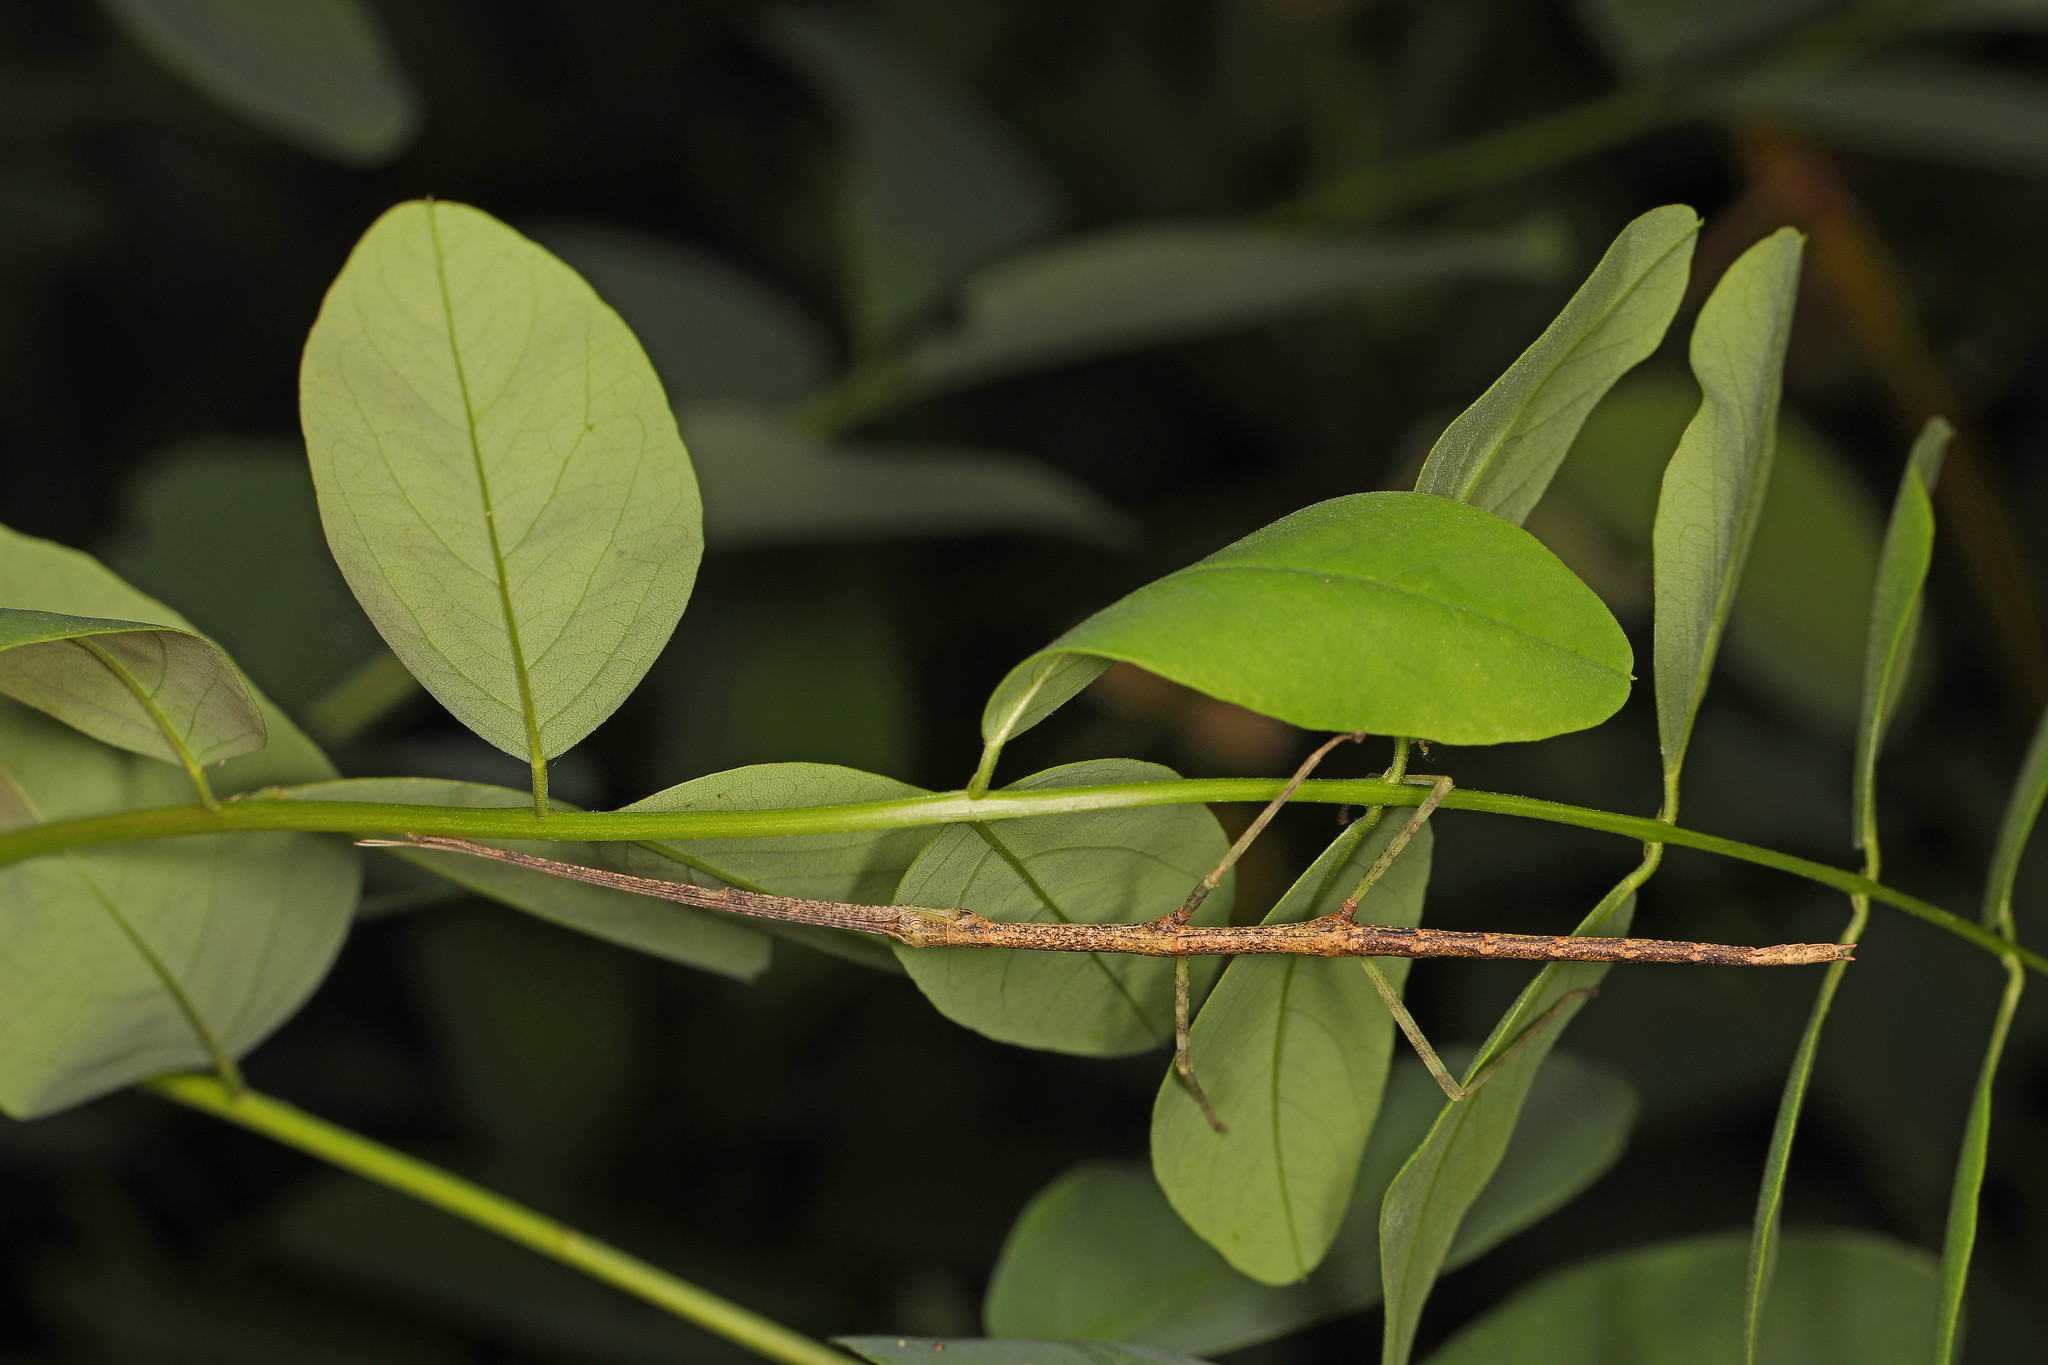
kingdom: Animalia
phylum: Arthropoda
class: Insecta
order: Phasmida
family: Diapheromeridae
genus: Diapheromera
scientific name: Diapheromera femorata
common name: Common american walkingstick
